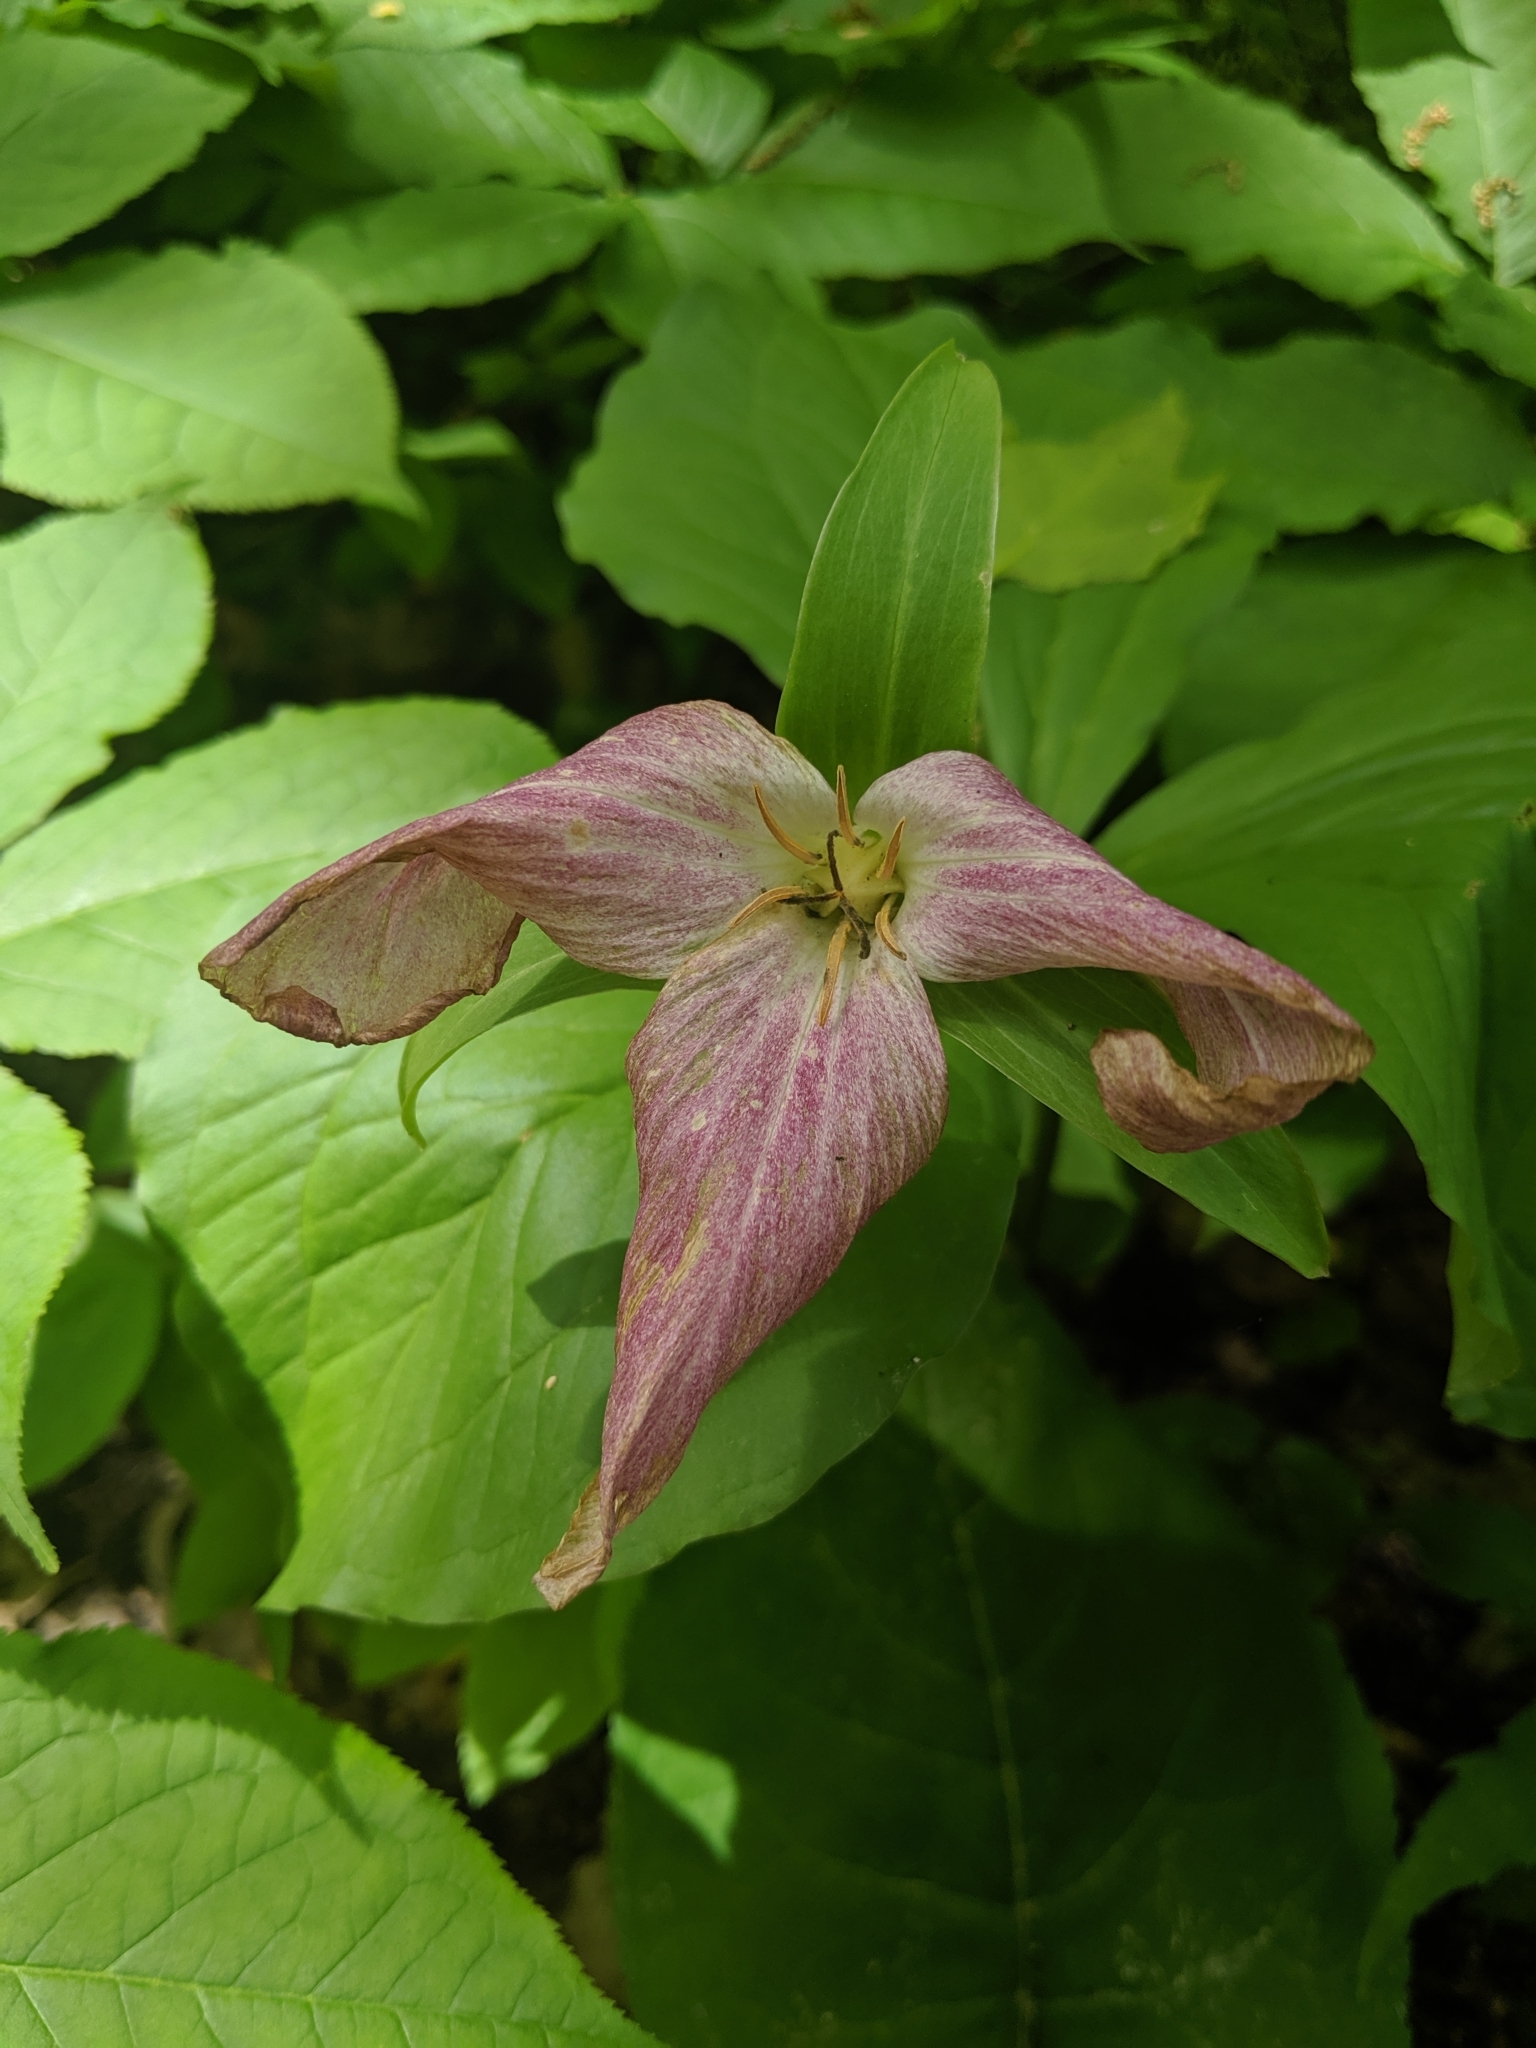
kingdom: Plantae
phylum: Tracheophyta
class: Liliopsida
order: Liliales
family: Melanthiaceae
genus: Trillium
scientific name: Trillium grandiflorum
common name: Great white trillium
